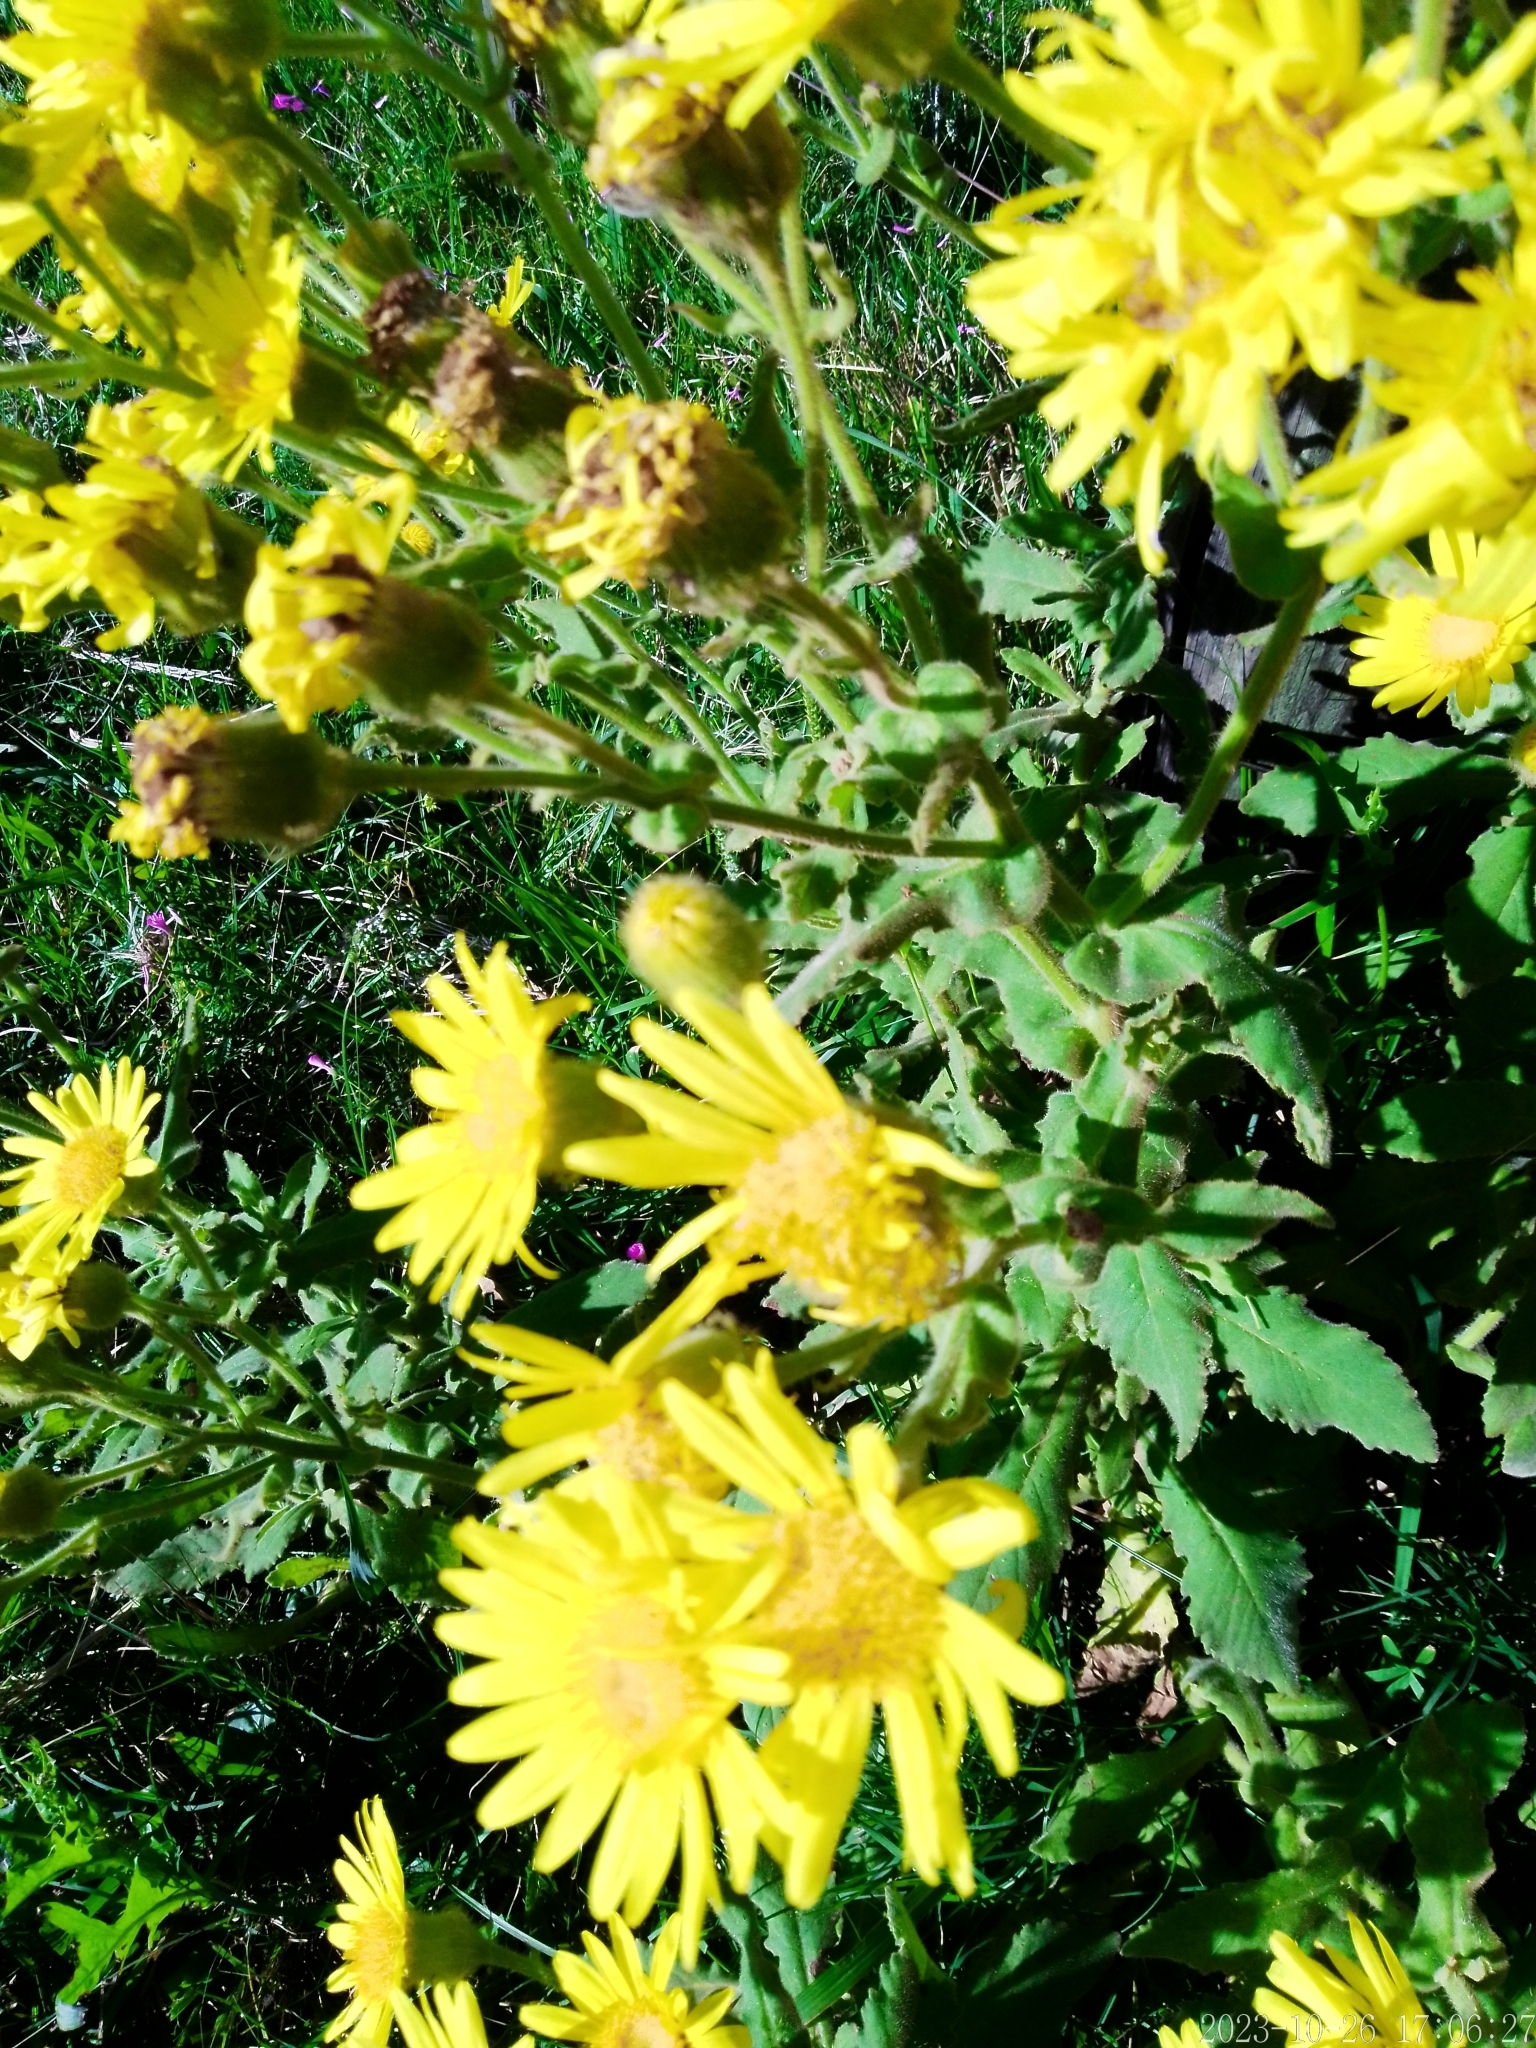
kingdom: Plantae
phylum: Tracheophyta
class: Magnoliopsida
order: Asterales
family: Asteraceae
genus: Senecio
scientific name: Senecio selloi
